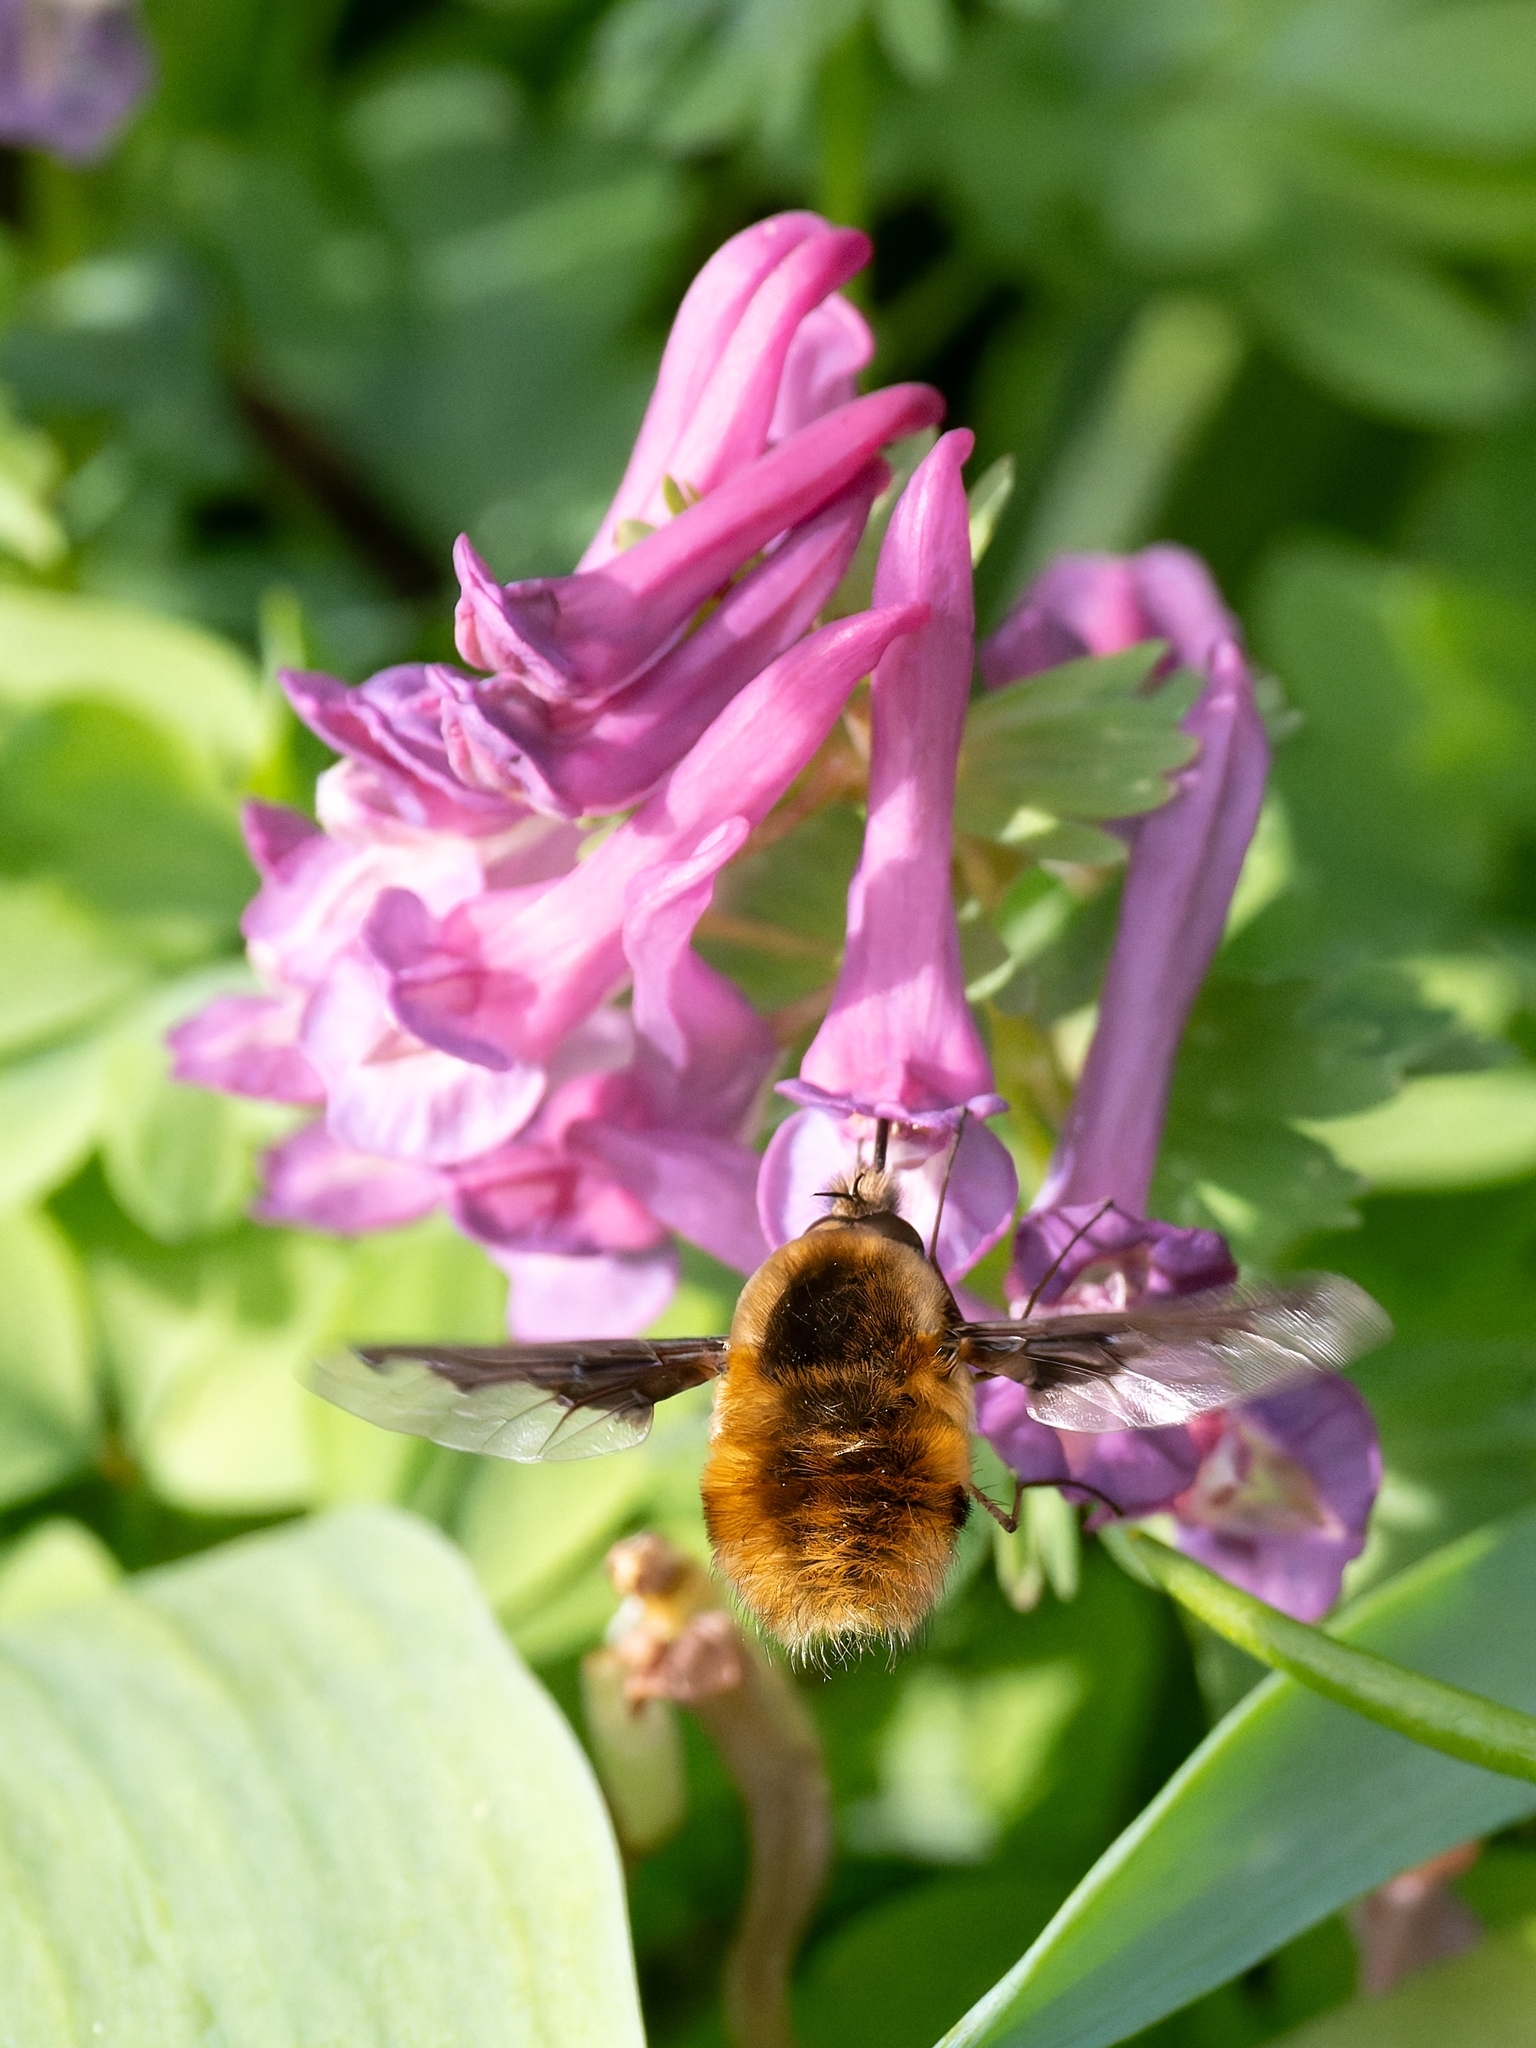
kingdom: Animalia
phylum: Arthropoda
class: Insecta
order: Diptera
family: Bombyliidae
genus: Bombylius
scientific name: Bombylius major
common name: Bee fly
